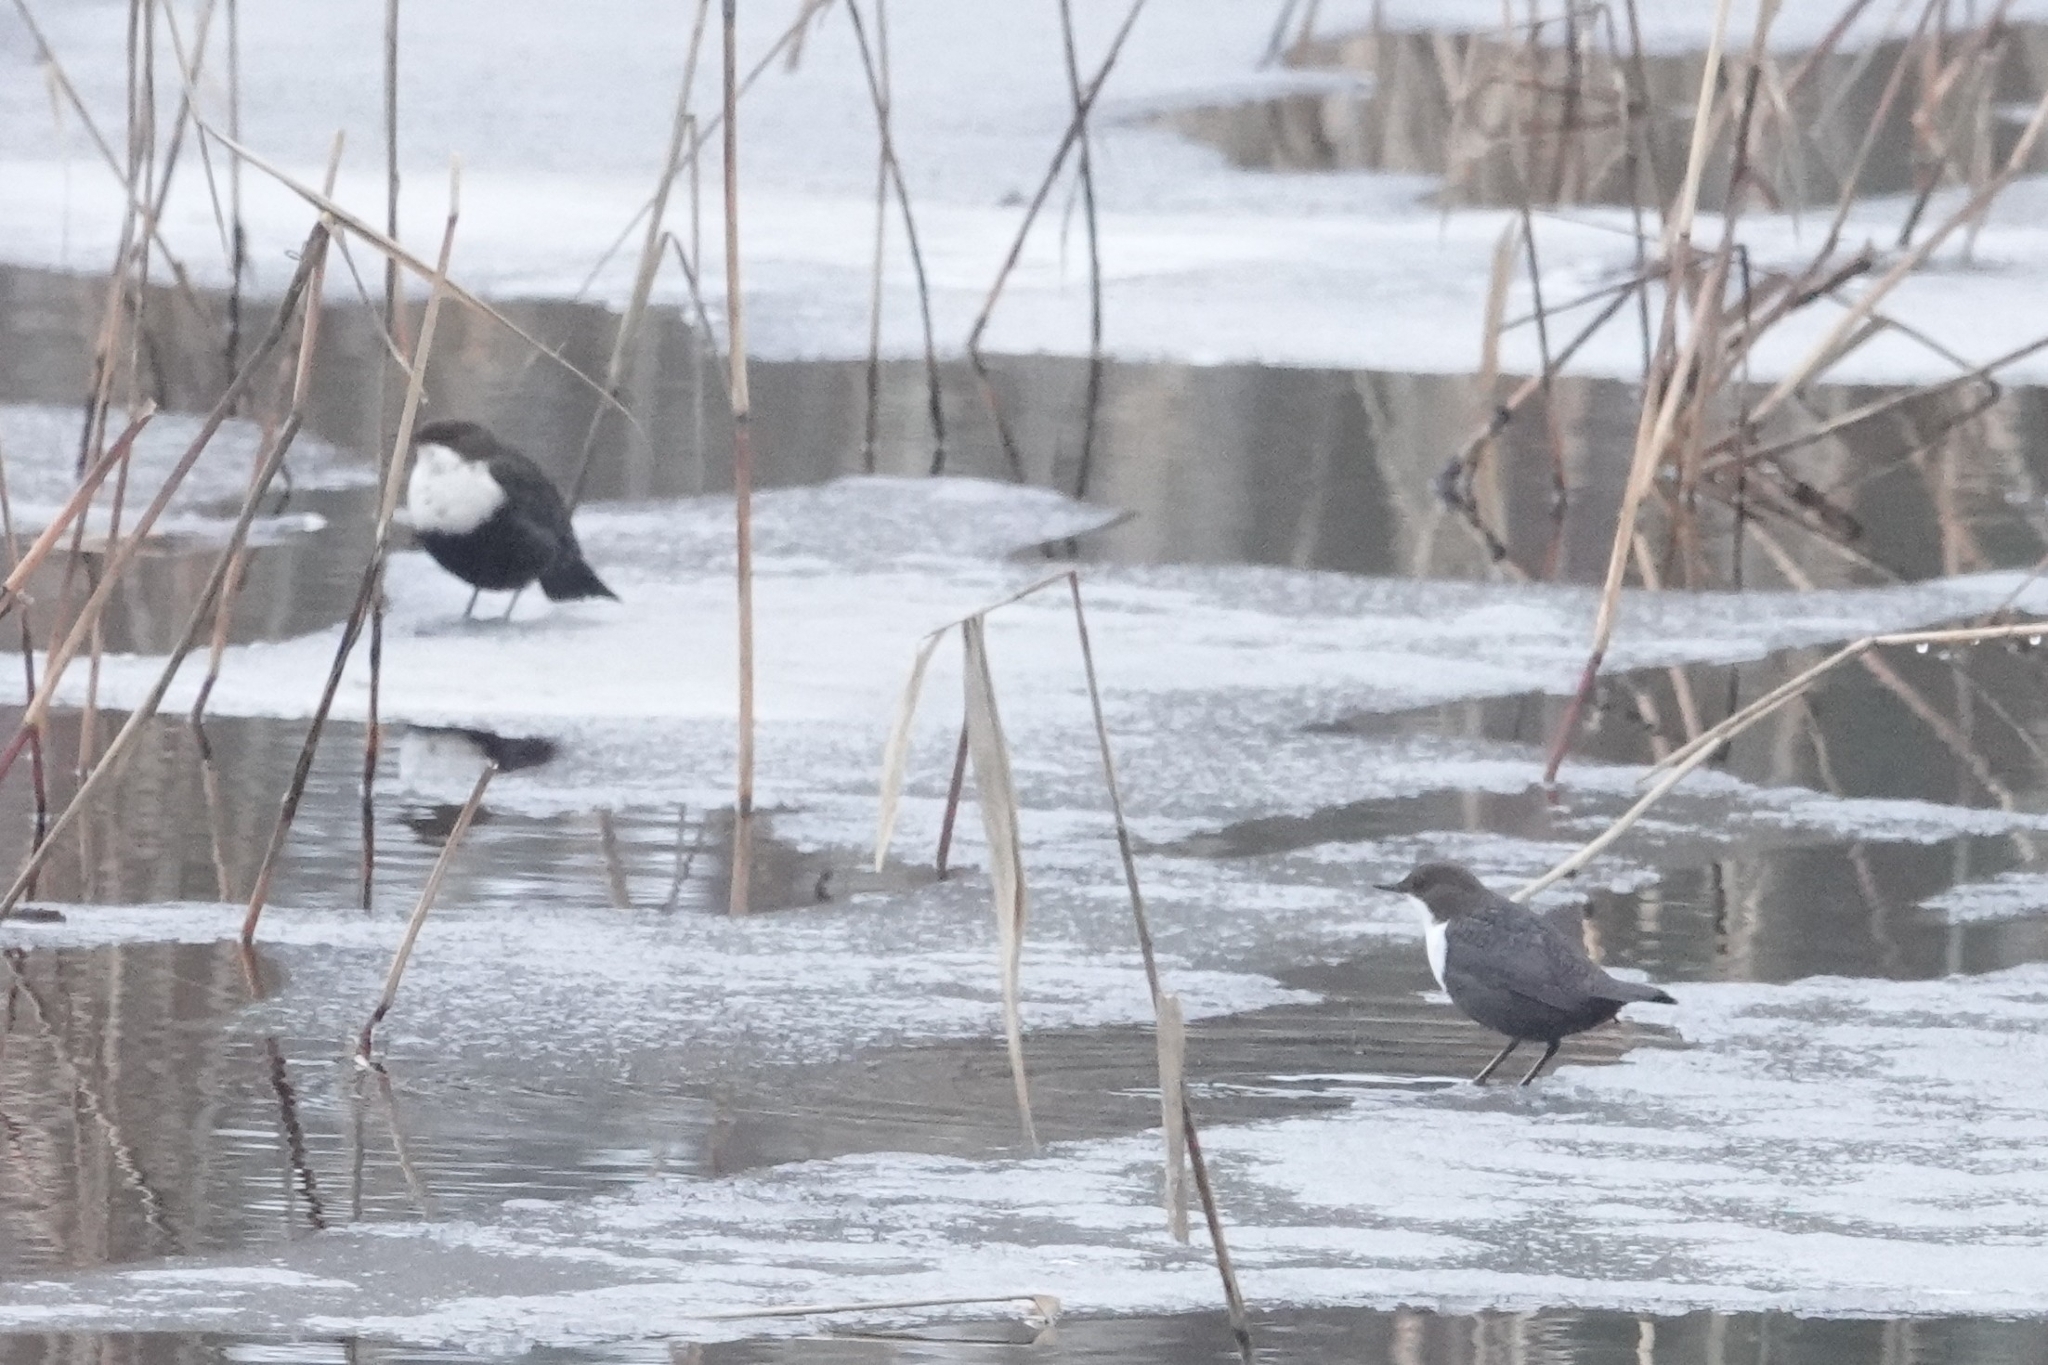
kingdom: Animalia
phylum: Chordata
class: Aves
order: Passeriformes
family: Cinclidae
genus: Cinclus
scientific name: Cinclus cinclus
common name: White-throated dipper
